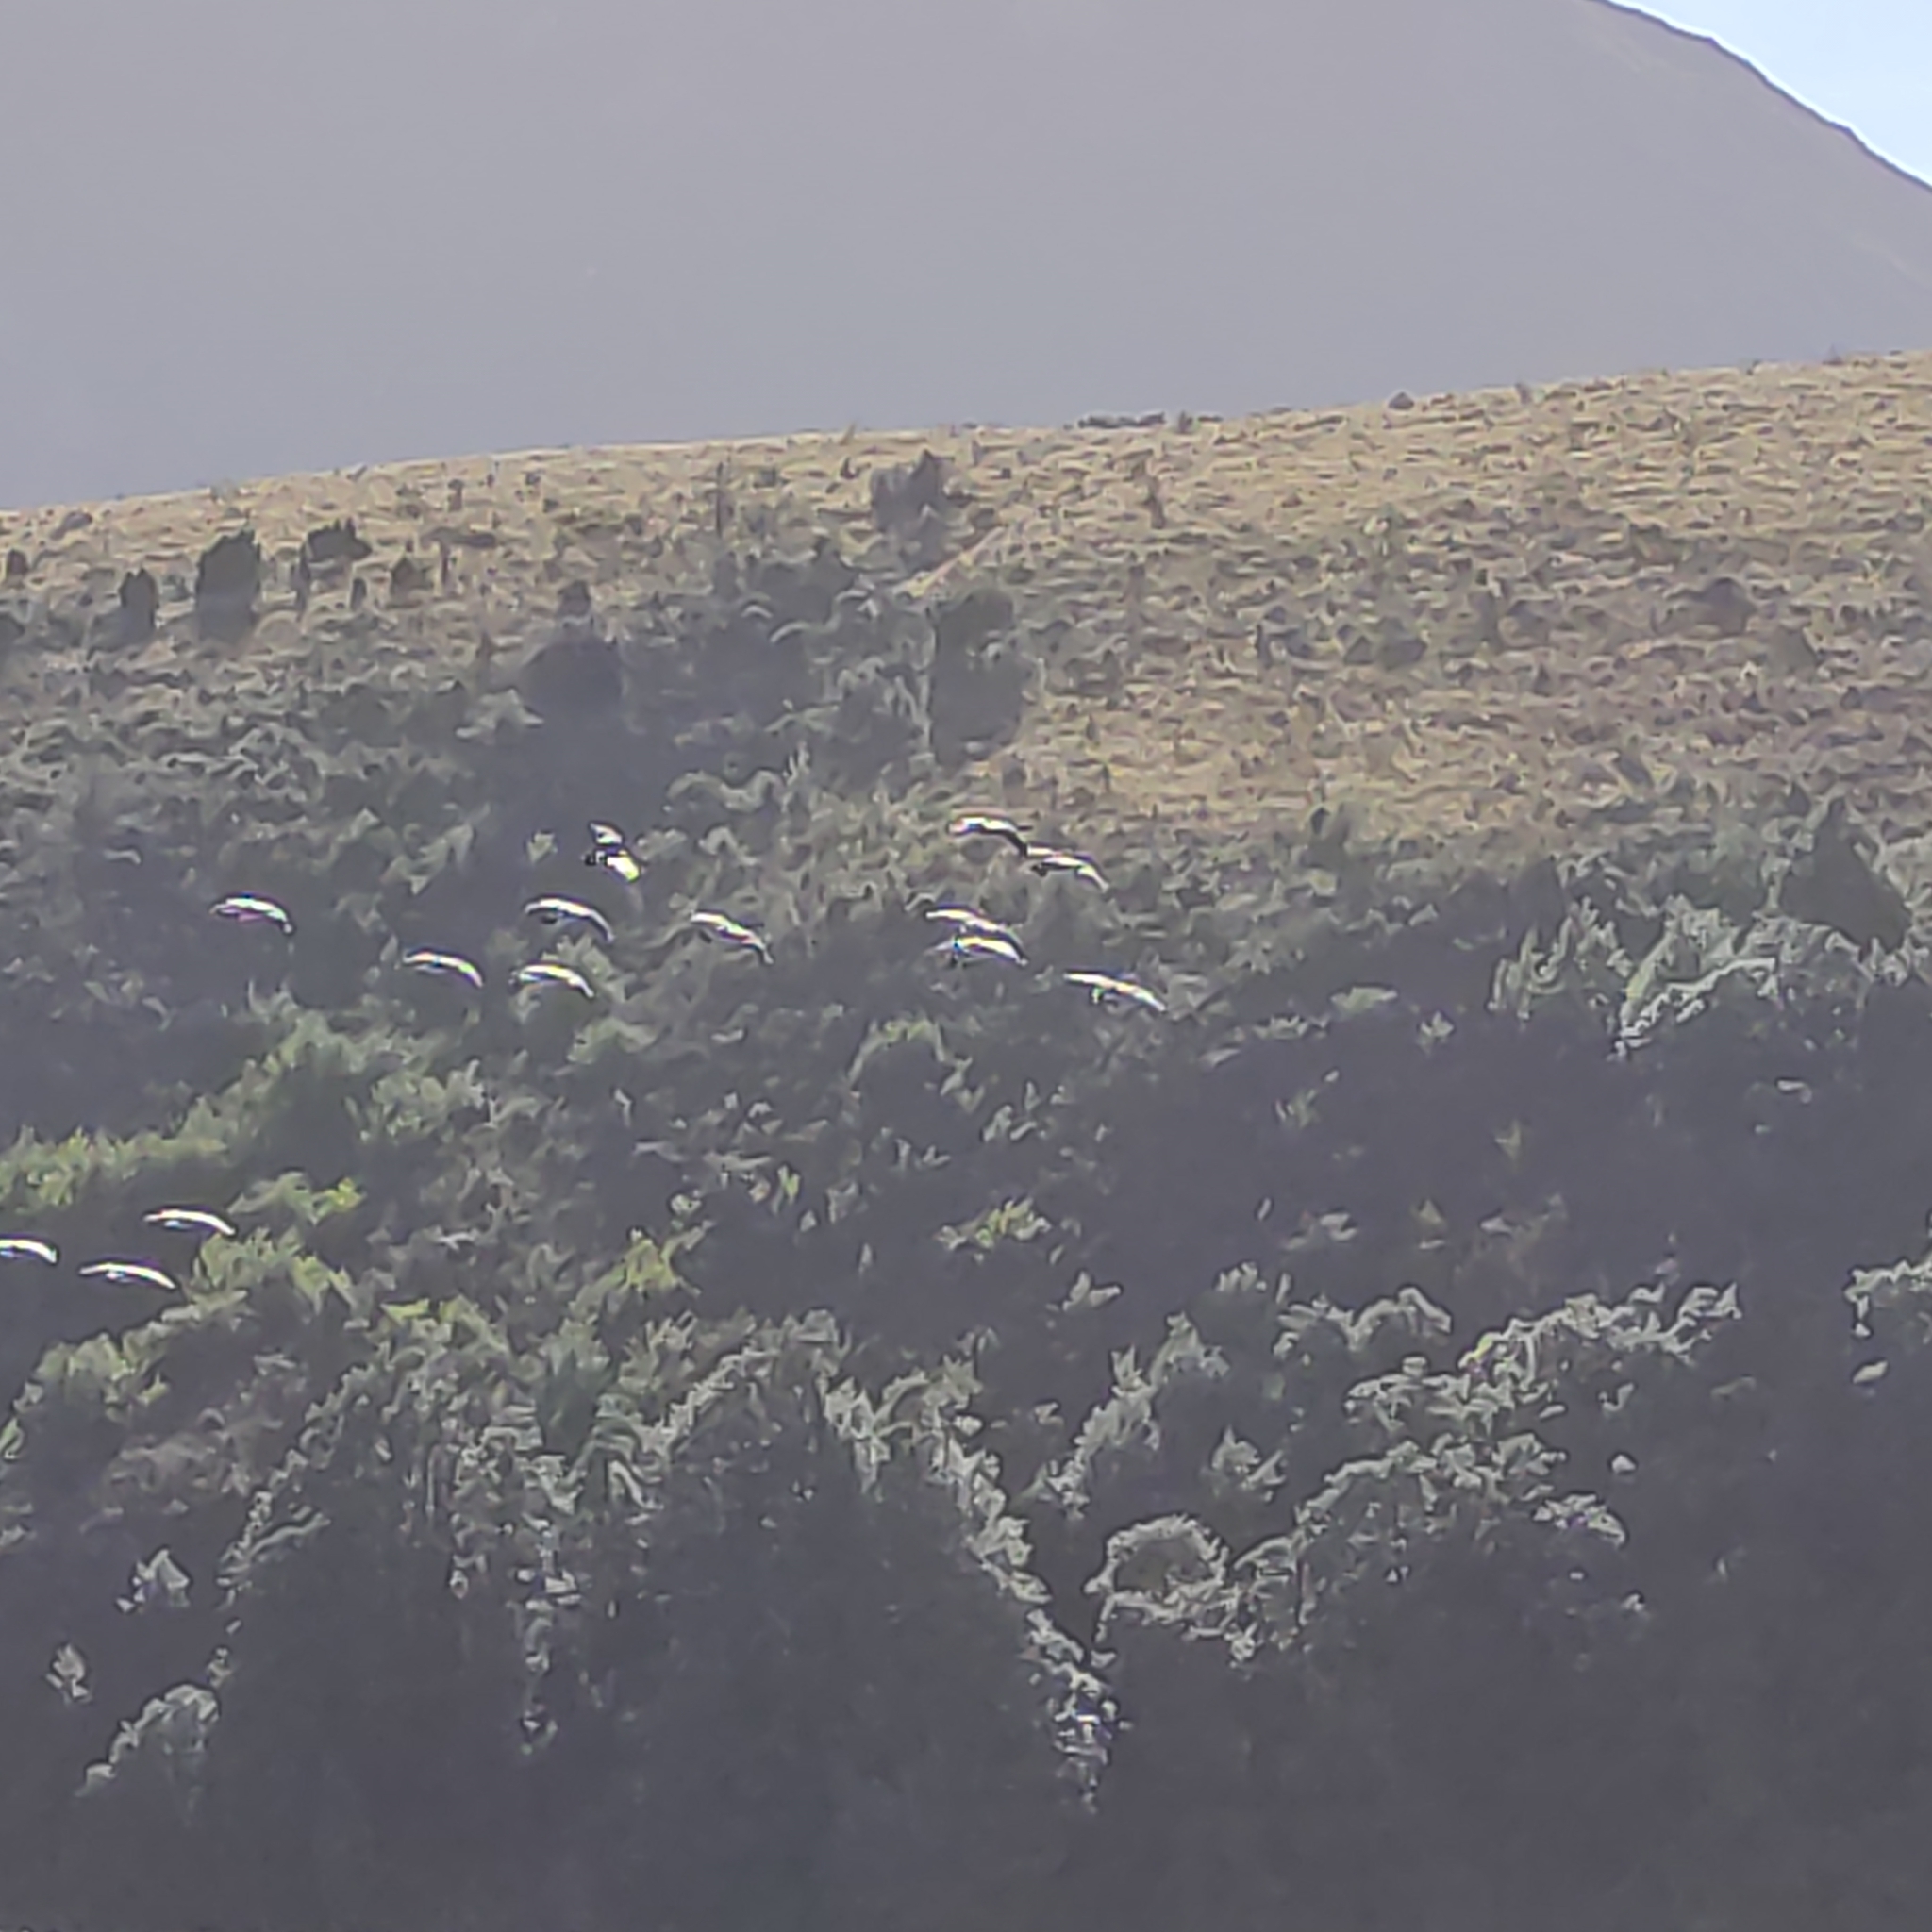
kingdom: Animalia
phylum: Chordata
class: Aves
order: Anseriformes
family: Anatidae
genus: Branta
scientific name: Branta canadensis
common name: Canada goose
